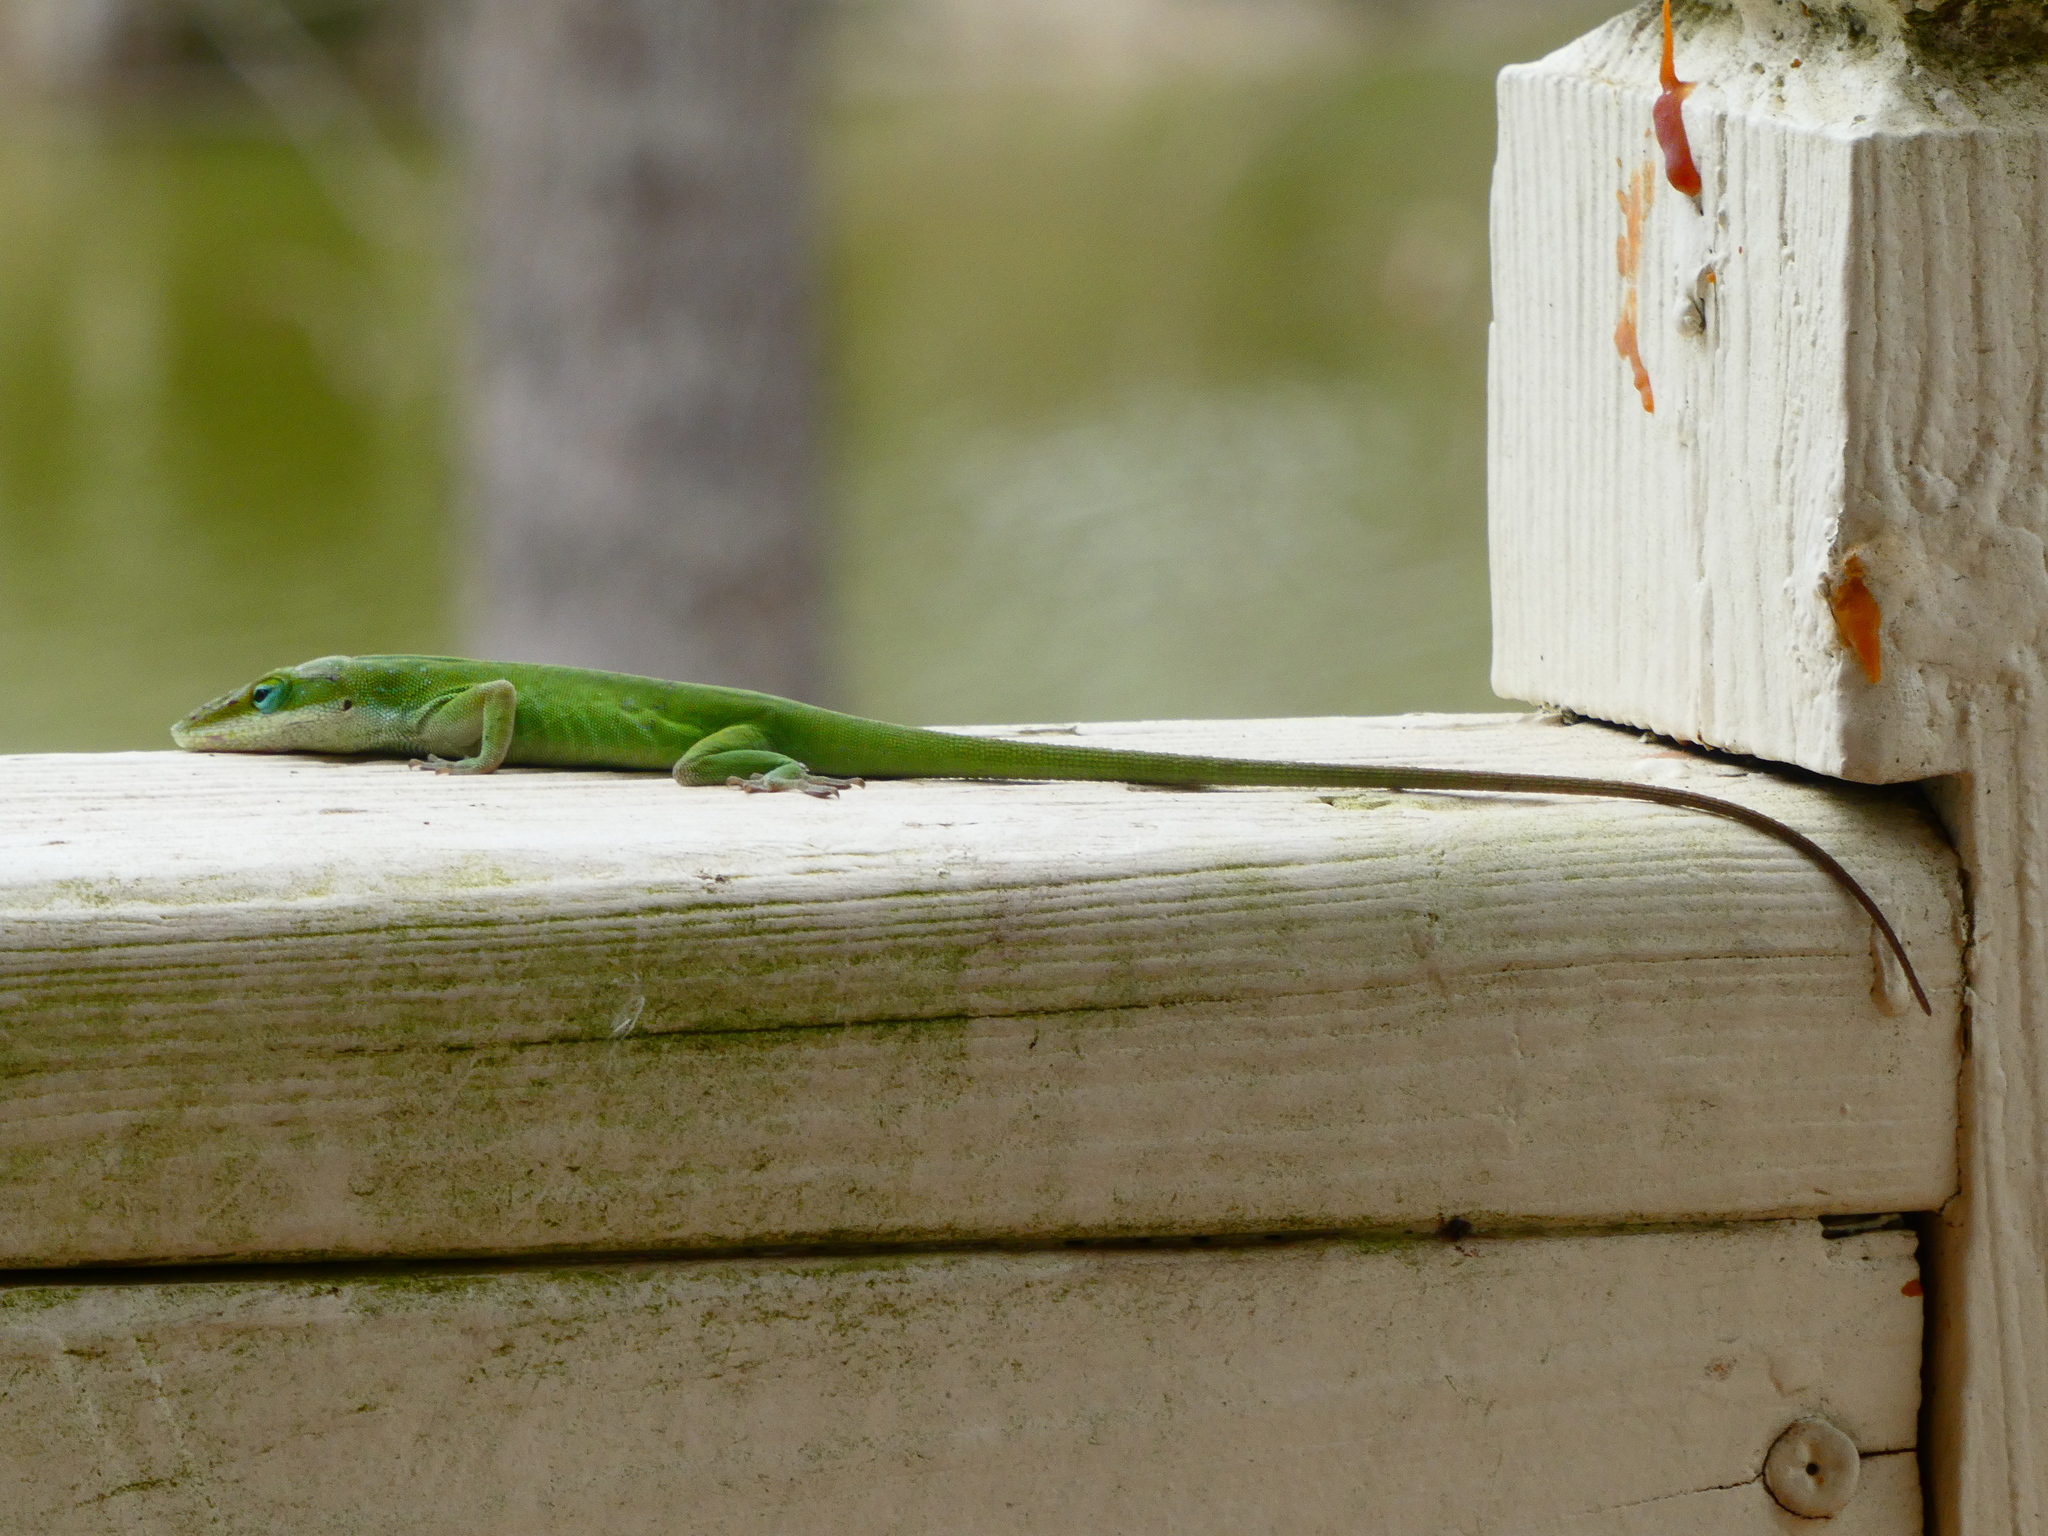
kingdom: Animalia
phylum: Chordata
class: Squamata
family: Dactyloidae
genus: Anolis
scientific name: Anolis carolinensis
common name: Green anole
